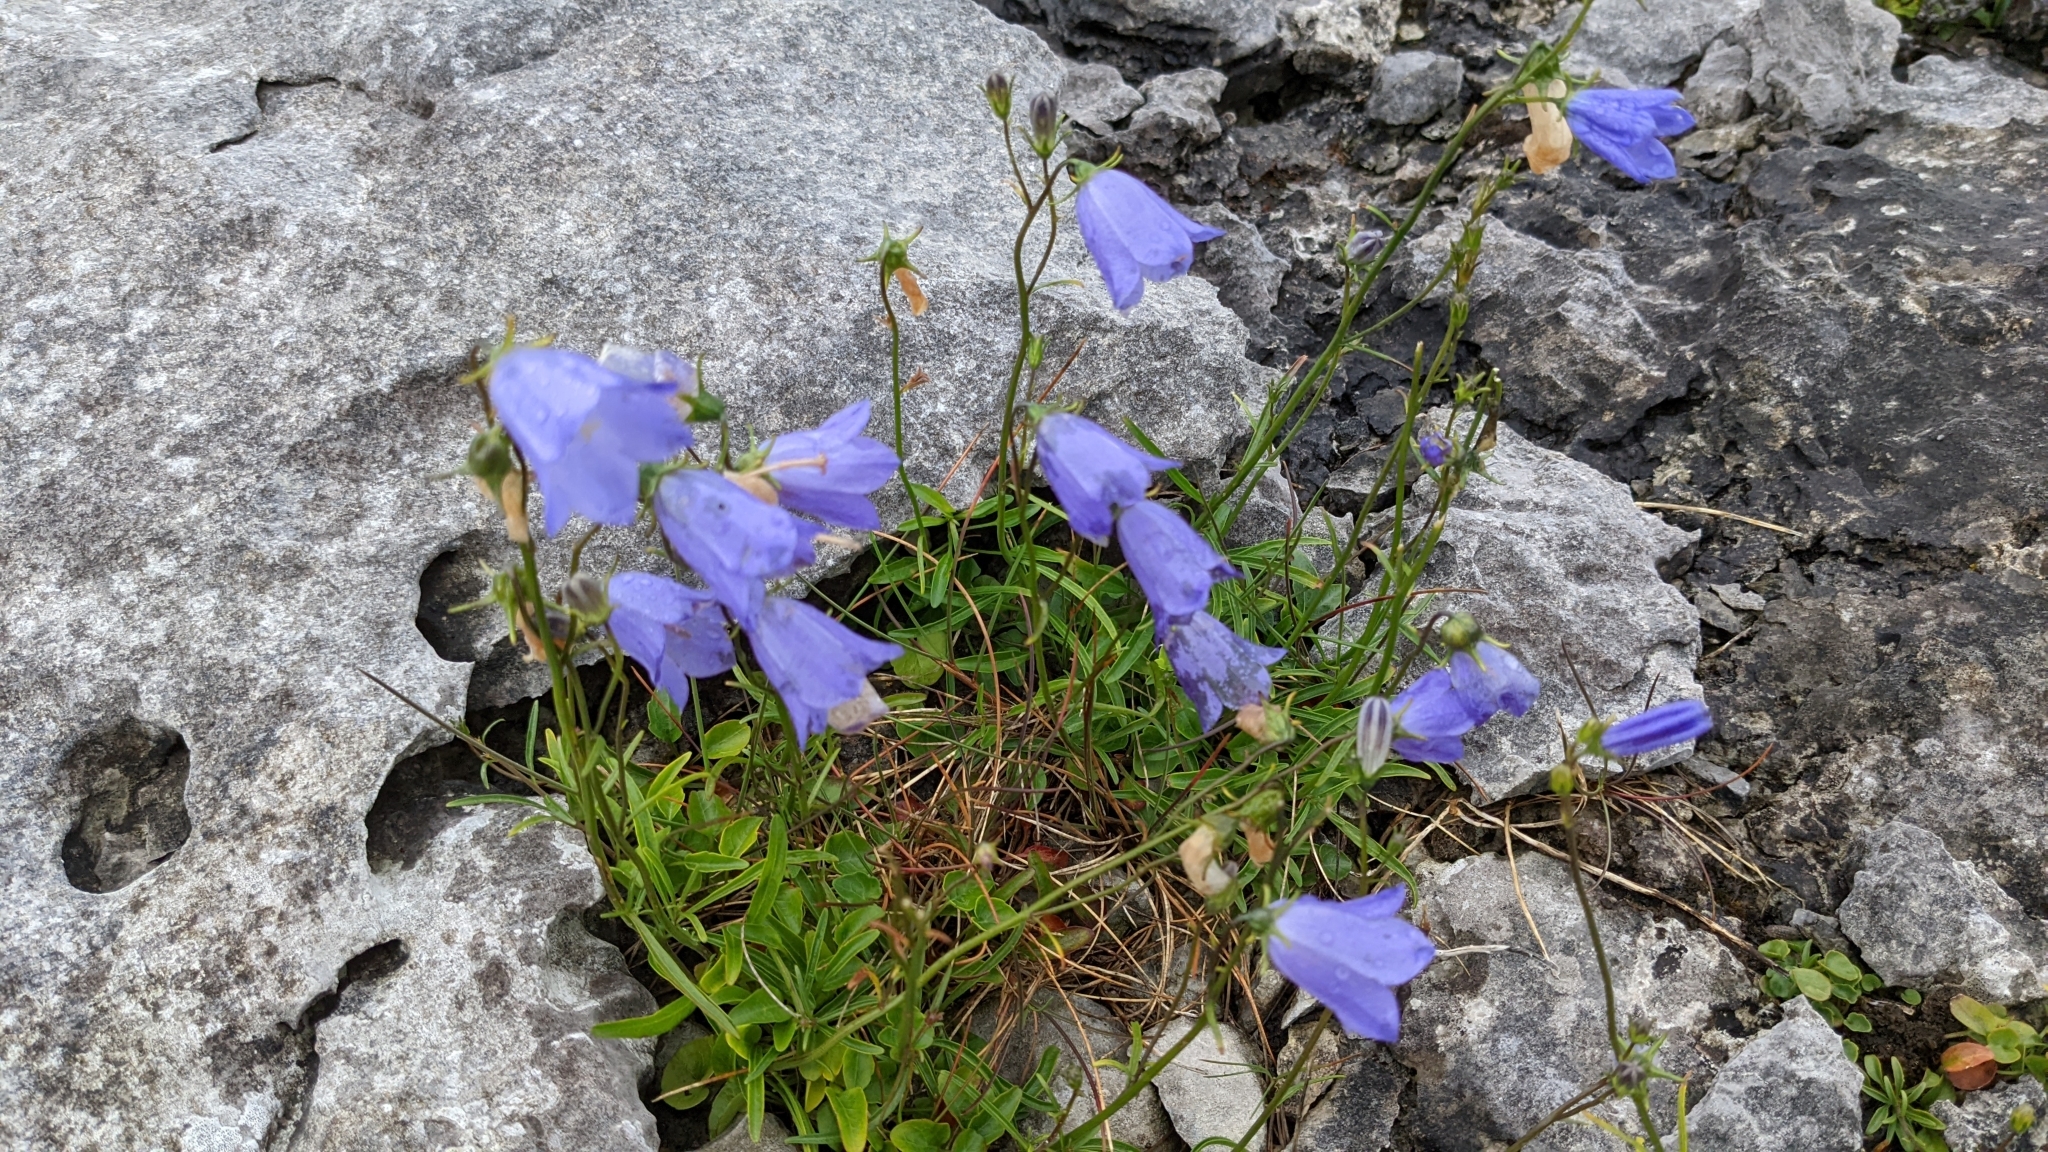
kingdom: Plantae
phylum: Tracheophyta
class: Magnoliopsida
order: Asterales
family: Campanulaceae
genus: Campanula
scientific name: Campanula rotundifolia
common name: Harebell
